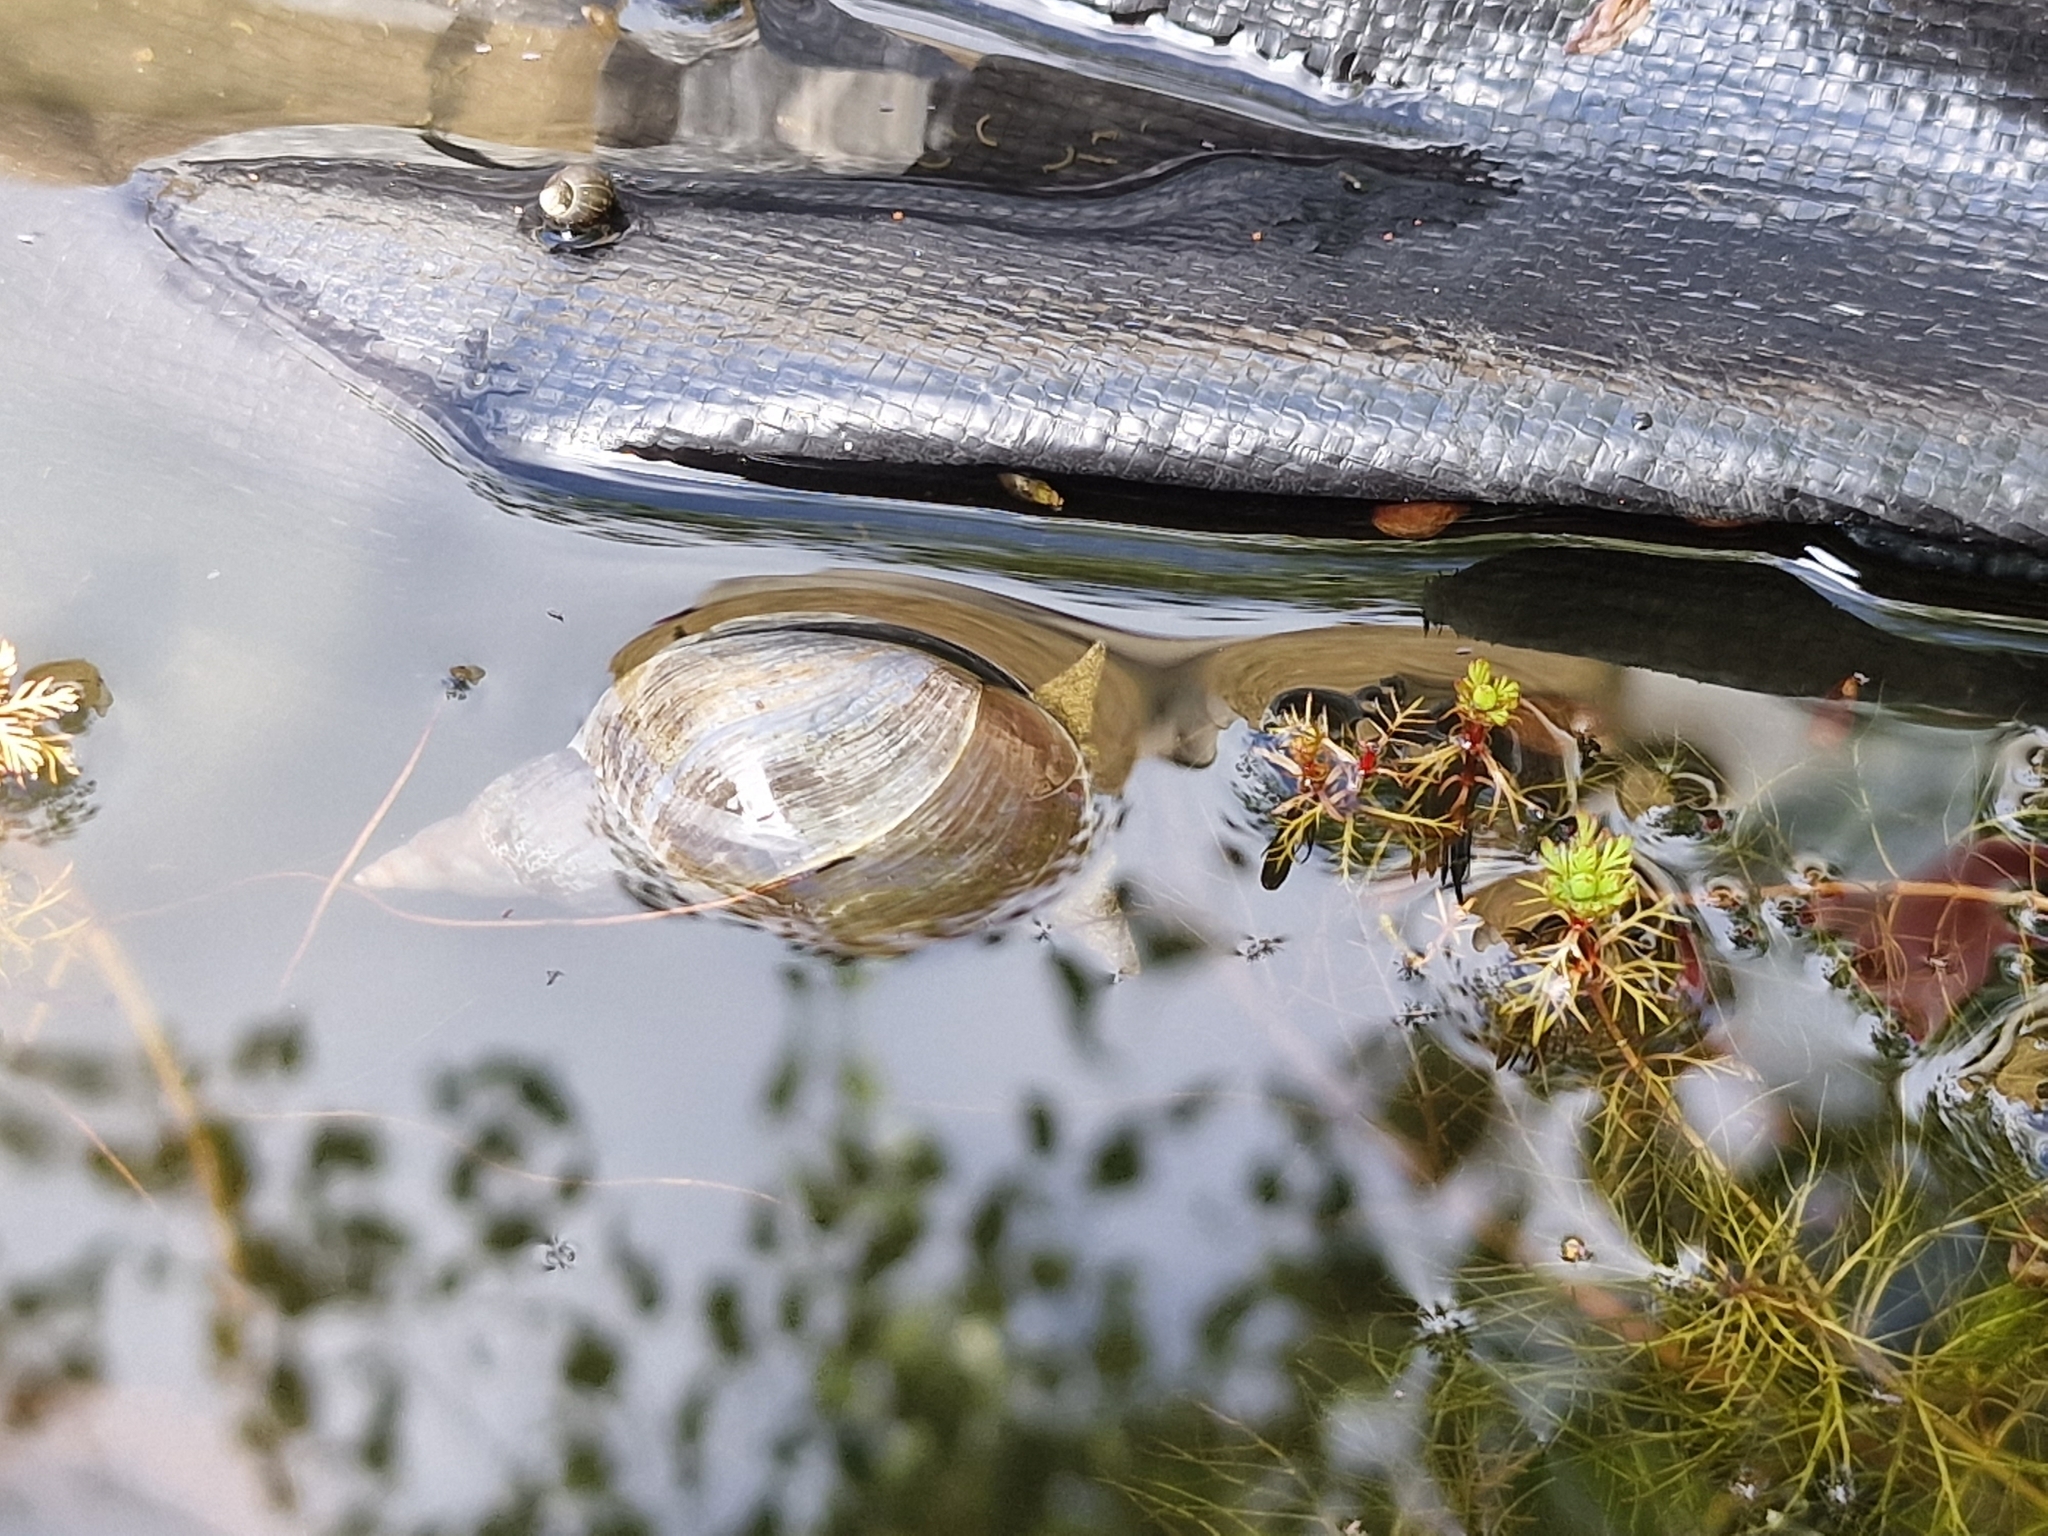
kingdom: Animalia
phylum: Mollusca
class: Gastropoda
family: Lymnaeidae
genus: Lymnaea
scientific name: Lymnaea stagnalis
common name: Great pond snail
